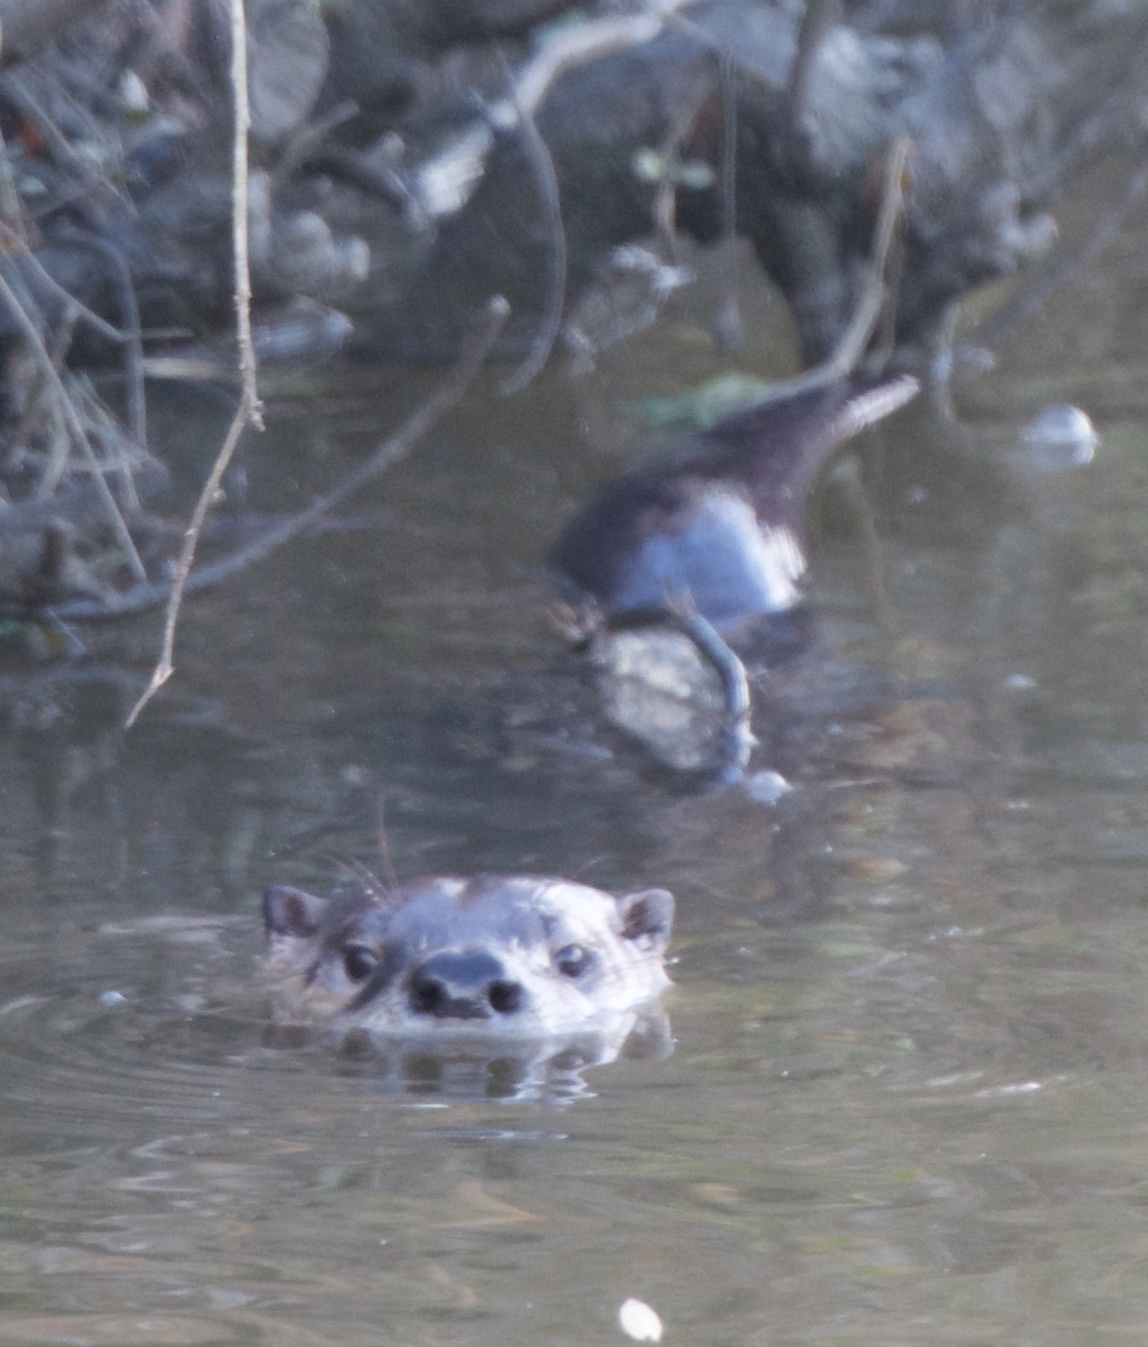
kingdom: Animalia
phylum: Chordata
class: Mammalia
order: Carnivora
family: Mustelidae
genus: Lontra
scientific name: Lontra canadensis
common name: North american river otter
